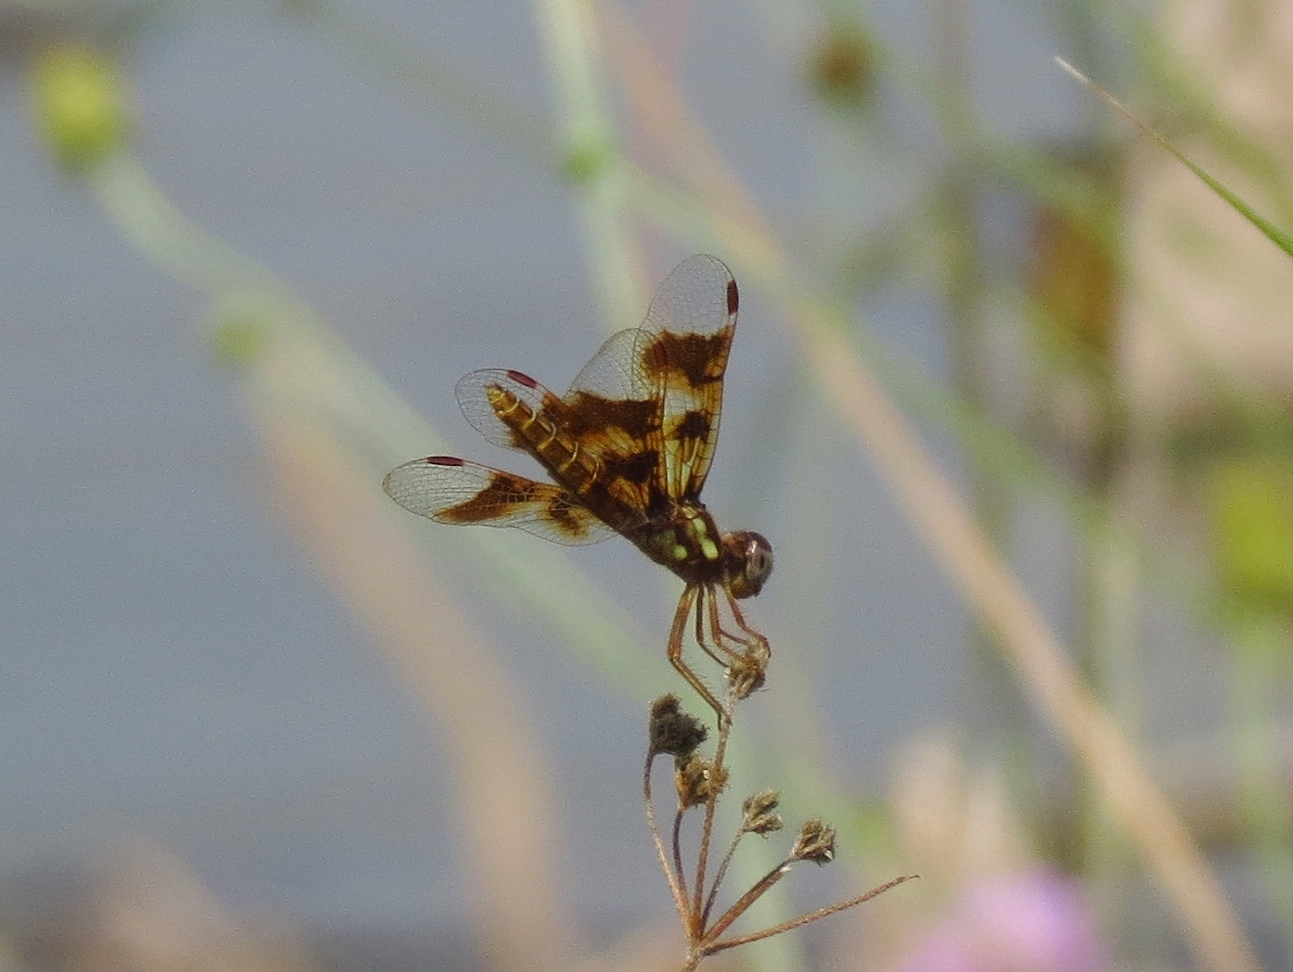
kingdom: Animalia
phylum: Arthropoda
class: Insecta
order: Odonata
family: Libellulidae
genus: Perithemis
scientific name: Perithemis tenera
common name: Eastern amberwing
